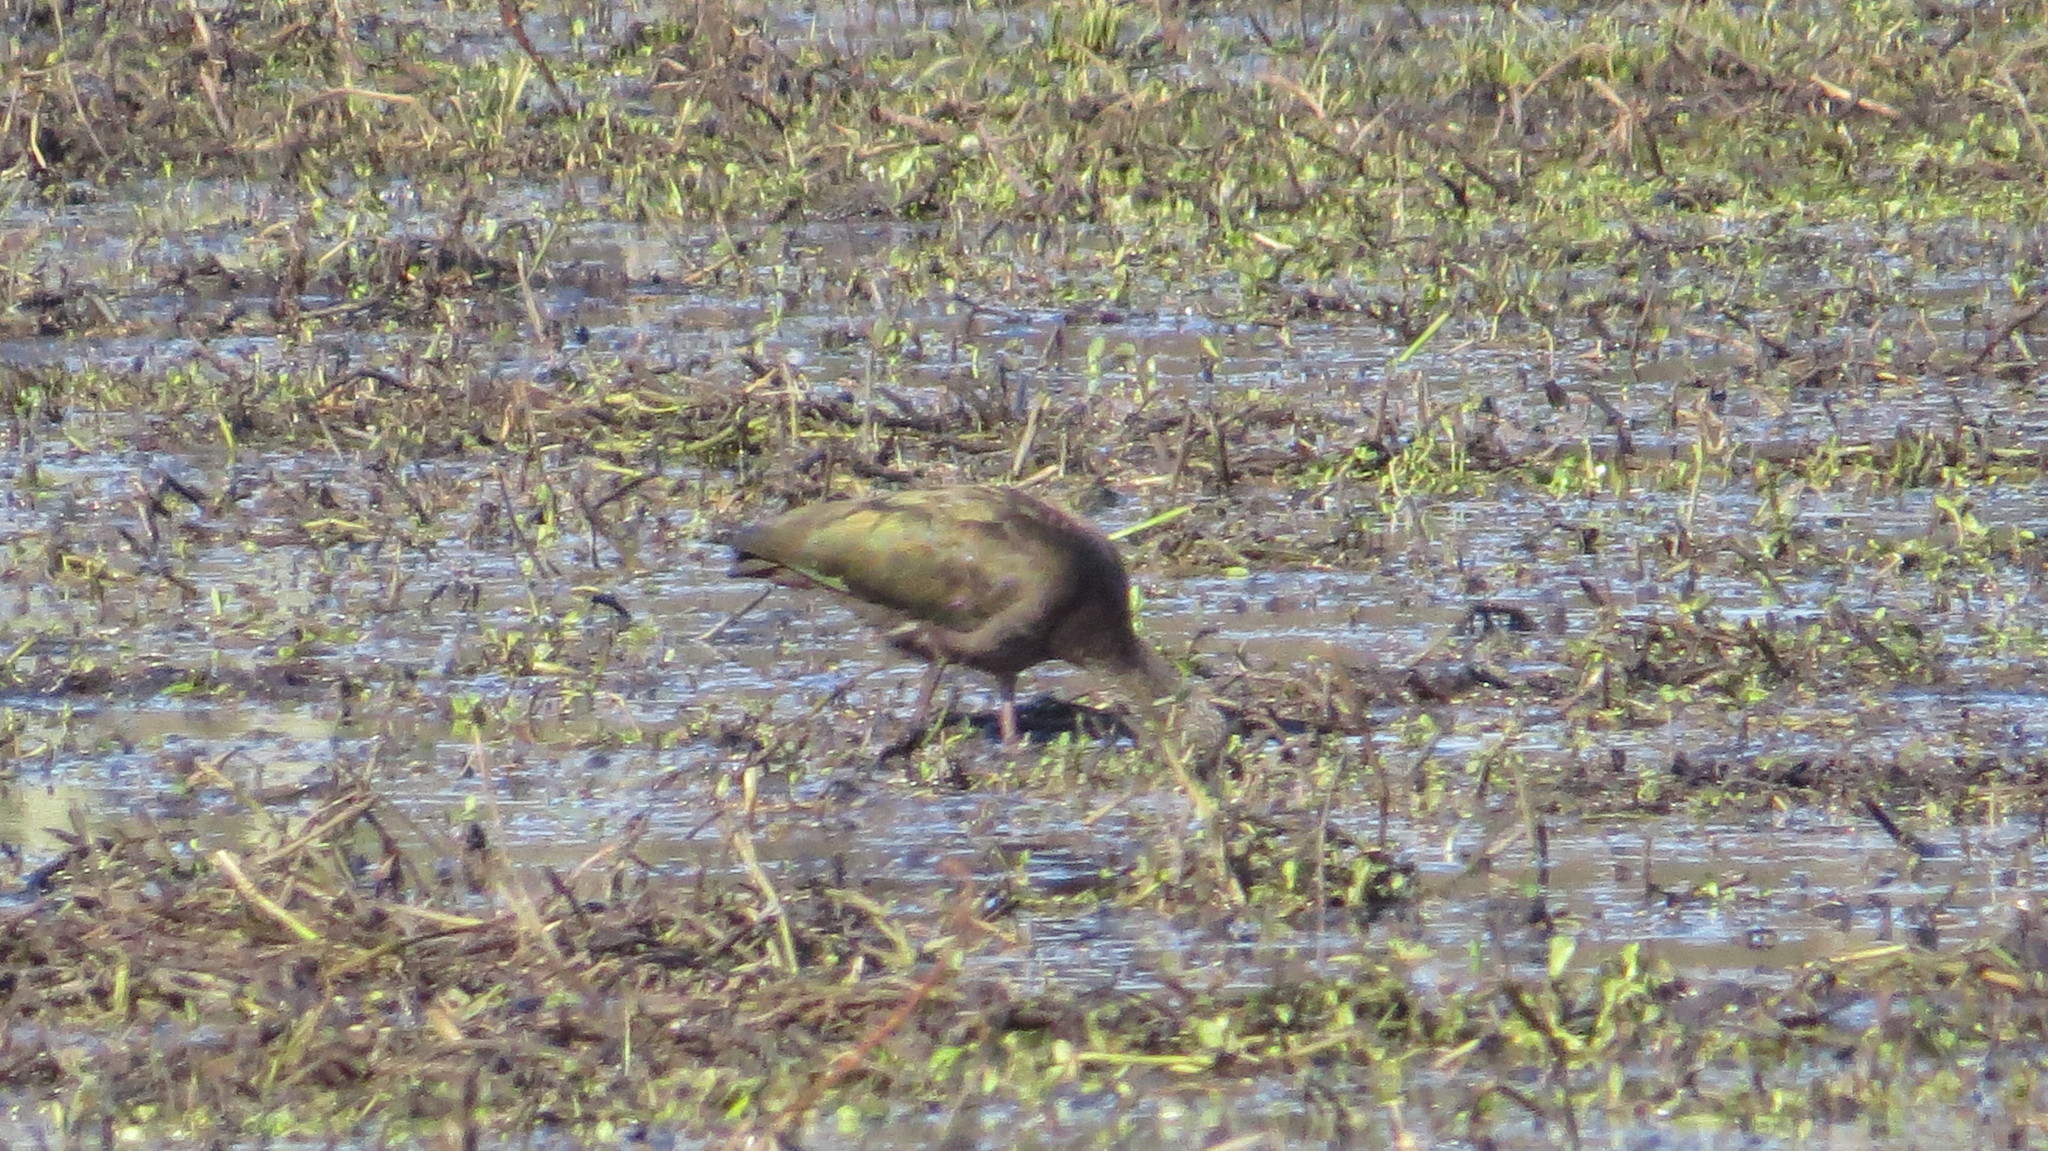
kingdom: Animalia
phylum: Chordata
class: Aves
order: Pelecaniformes
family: Threskiornithidae
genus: Plegadis
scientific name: Plegadis chihi
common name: White-faced ibis
